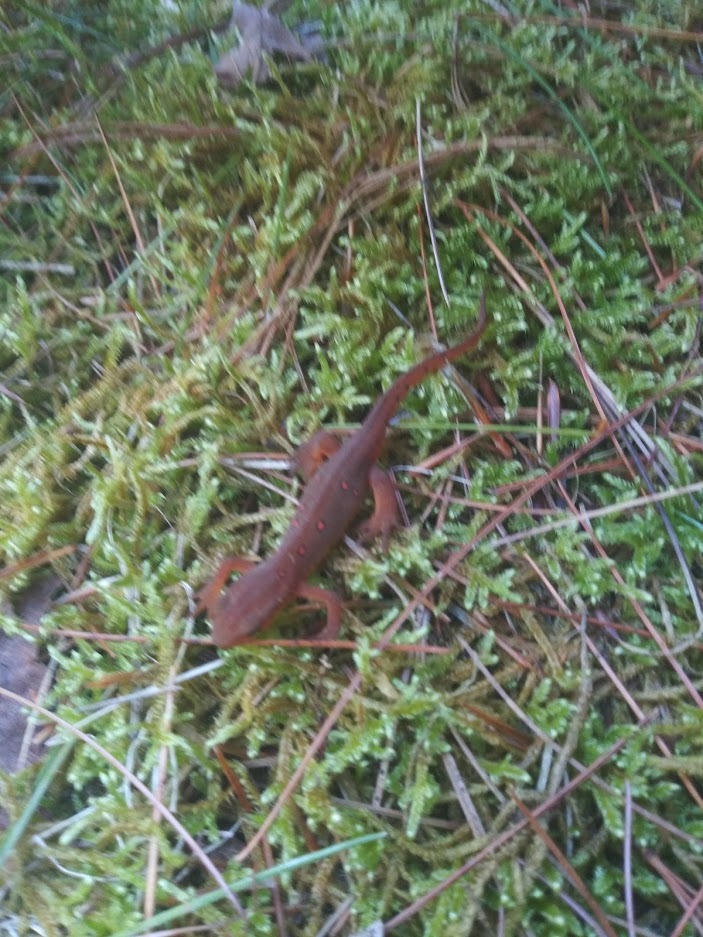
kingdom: Animalia
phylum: Chordata
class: Amphibia
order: Caudata
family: Salamandridae
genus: Notophthalmus
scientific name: Notophthalmus viridescens
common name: Eastern newt
